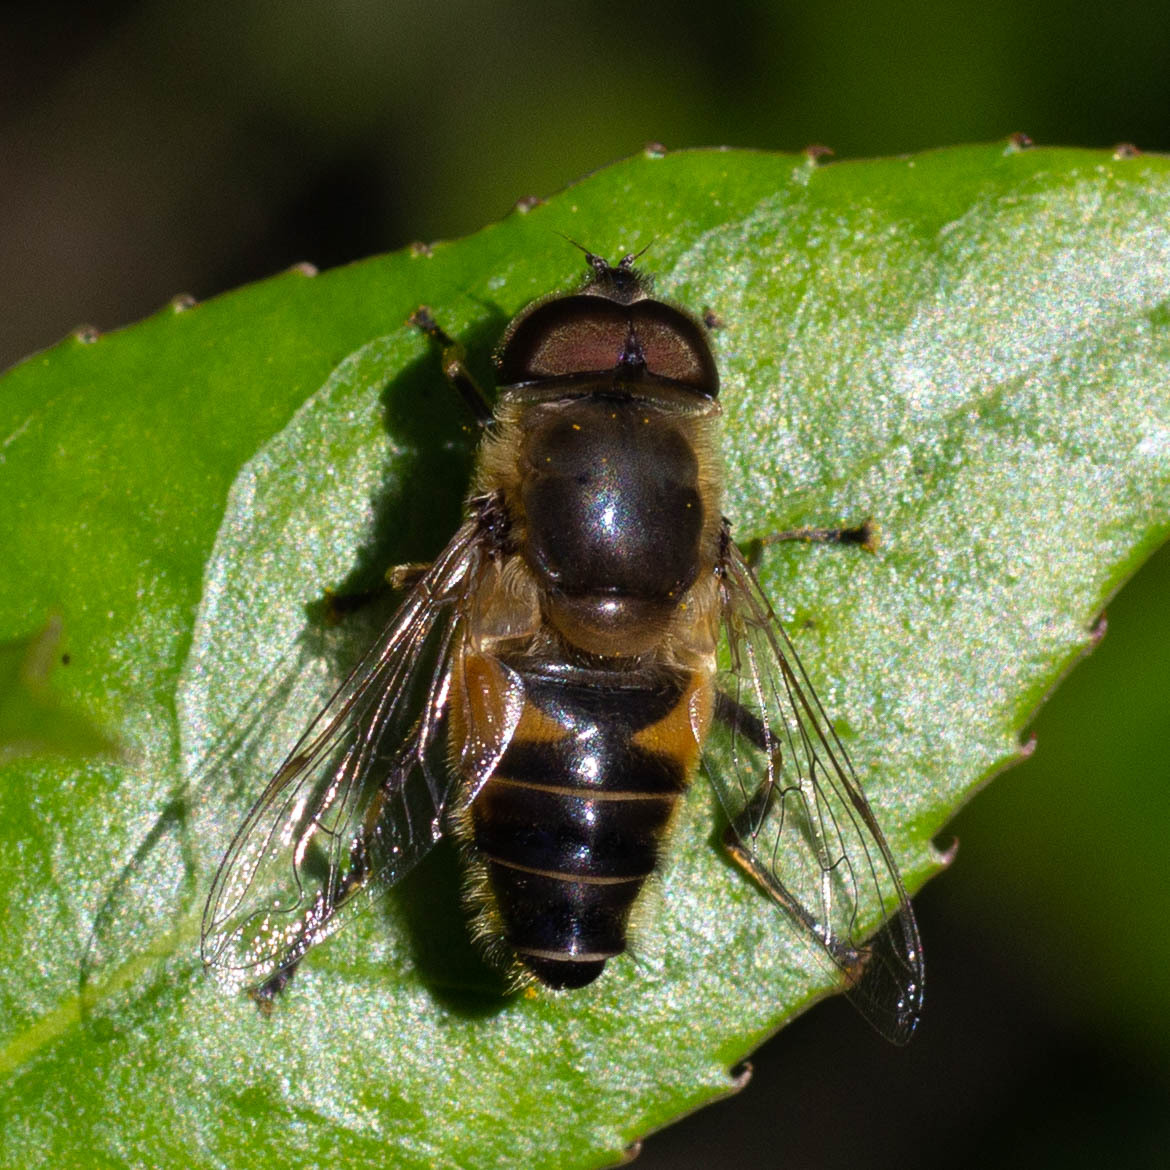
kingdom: Animalia
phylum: Arthropoda
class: Insecta
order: Diptera
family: Syrphidae
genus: Eristalis
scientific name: Eristalis pertinax
